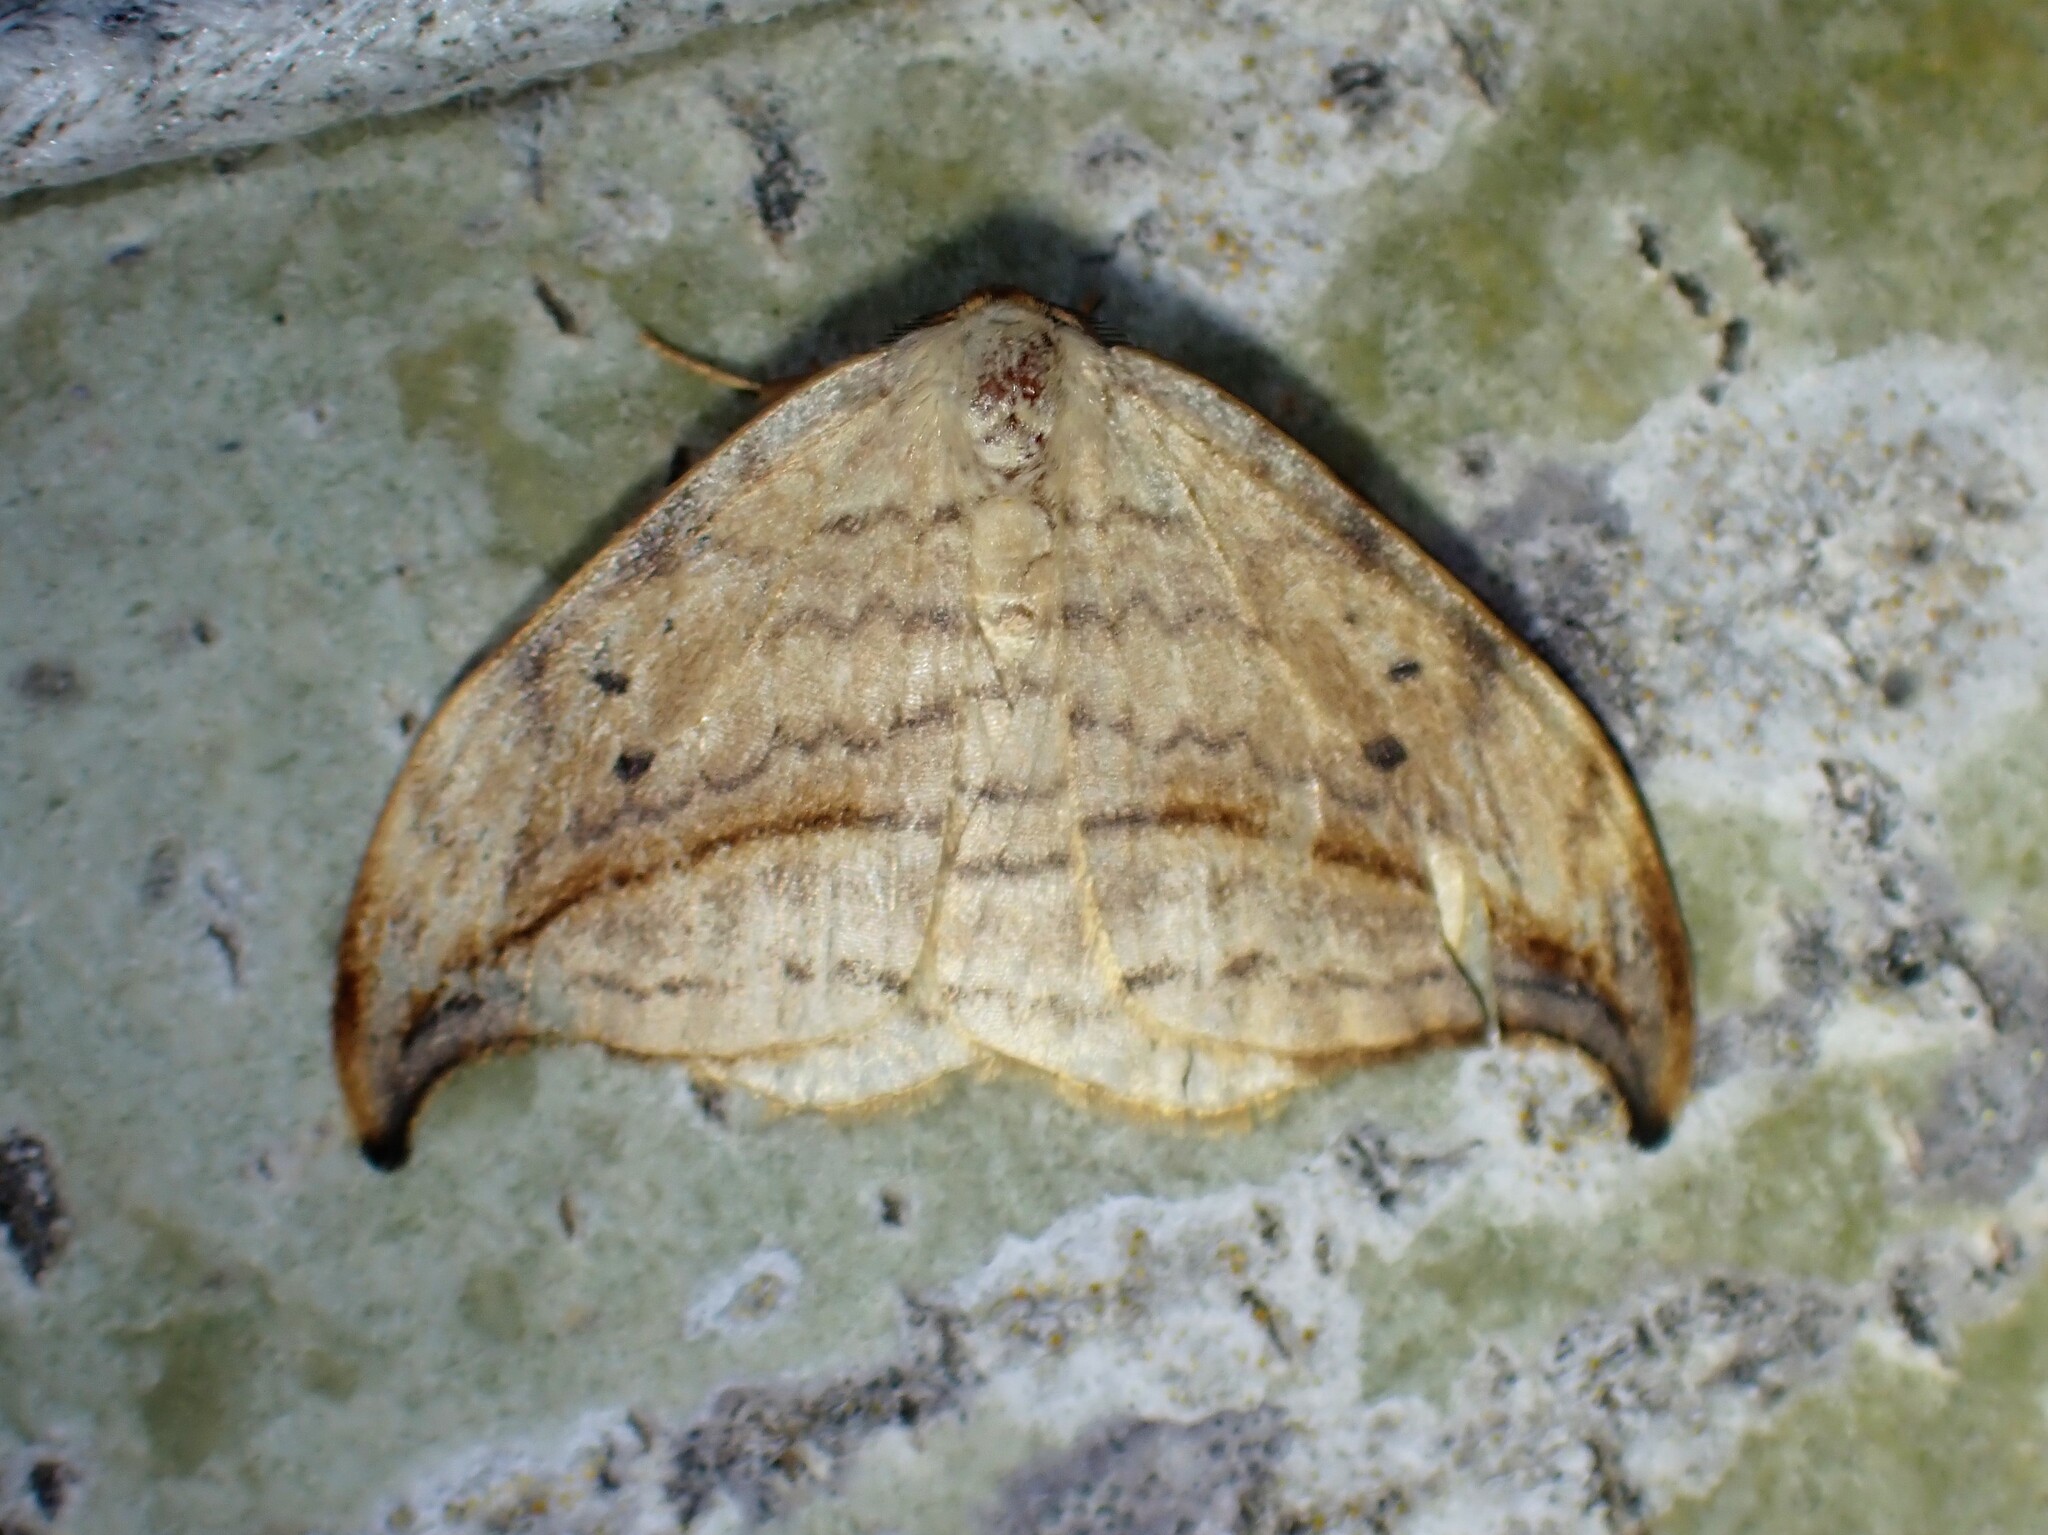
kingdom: Animalia
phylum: Arthropoda
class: Insecta
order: Lepidoptera
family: Drepanidae
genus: Drepana
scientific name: Drepana arcuata
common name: Arched hooktip moth
